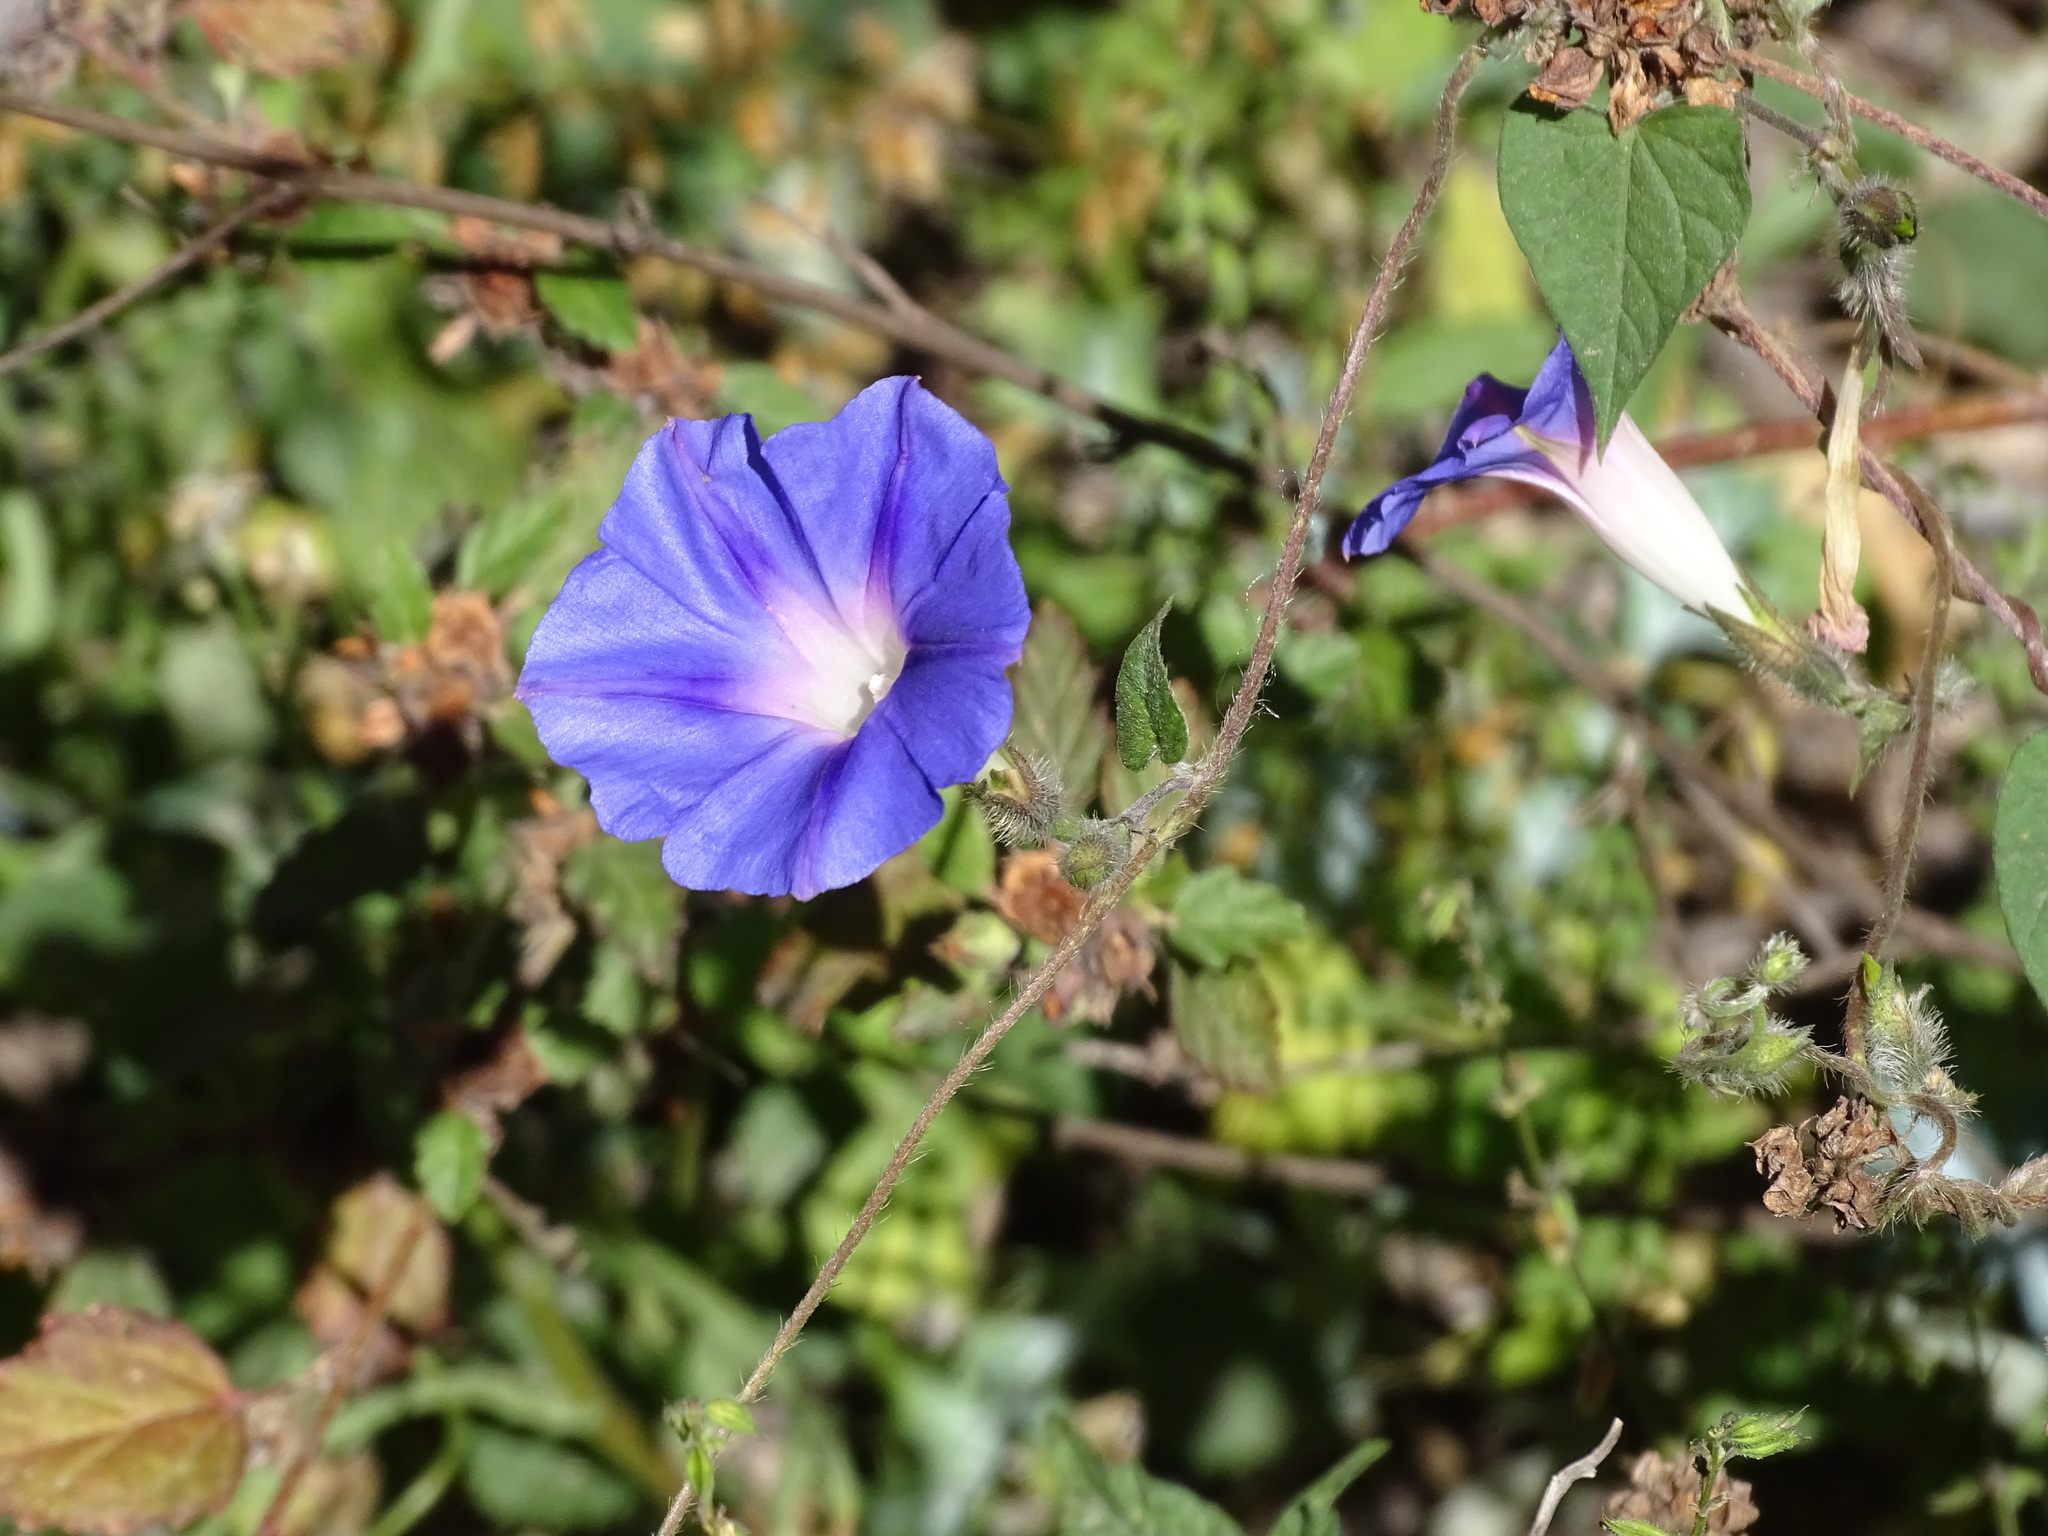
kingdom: Plantae
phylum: Tracheophyta
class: Magnoliopsida
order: Solanales
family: Convolvulaceae
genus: Ipomoea
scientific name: Ipomoea purpurea
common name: Common morning-glory
